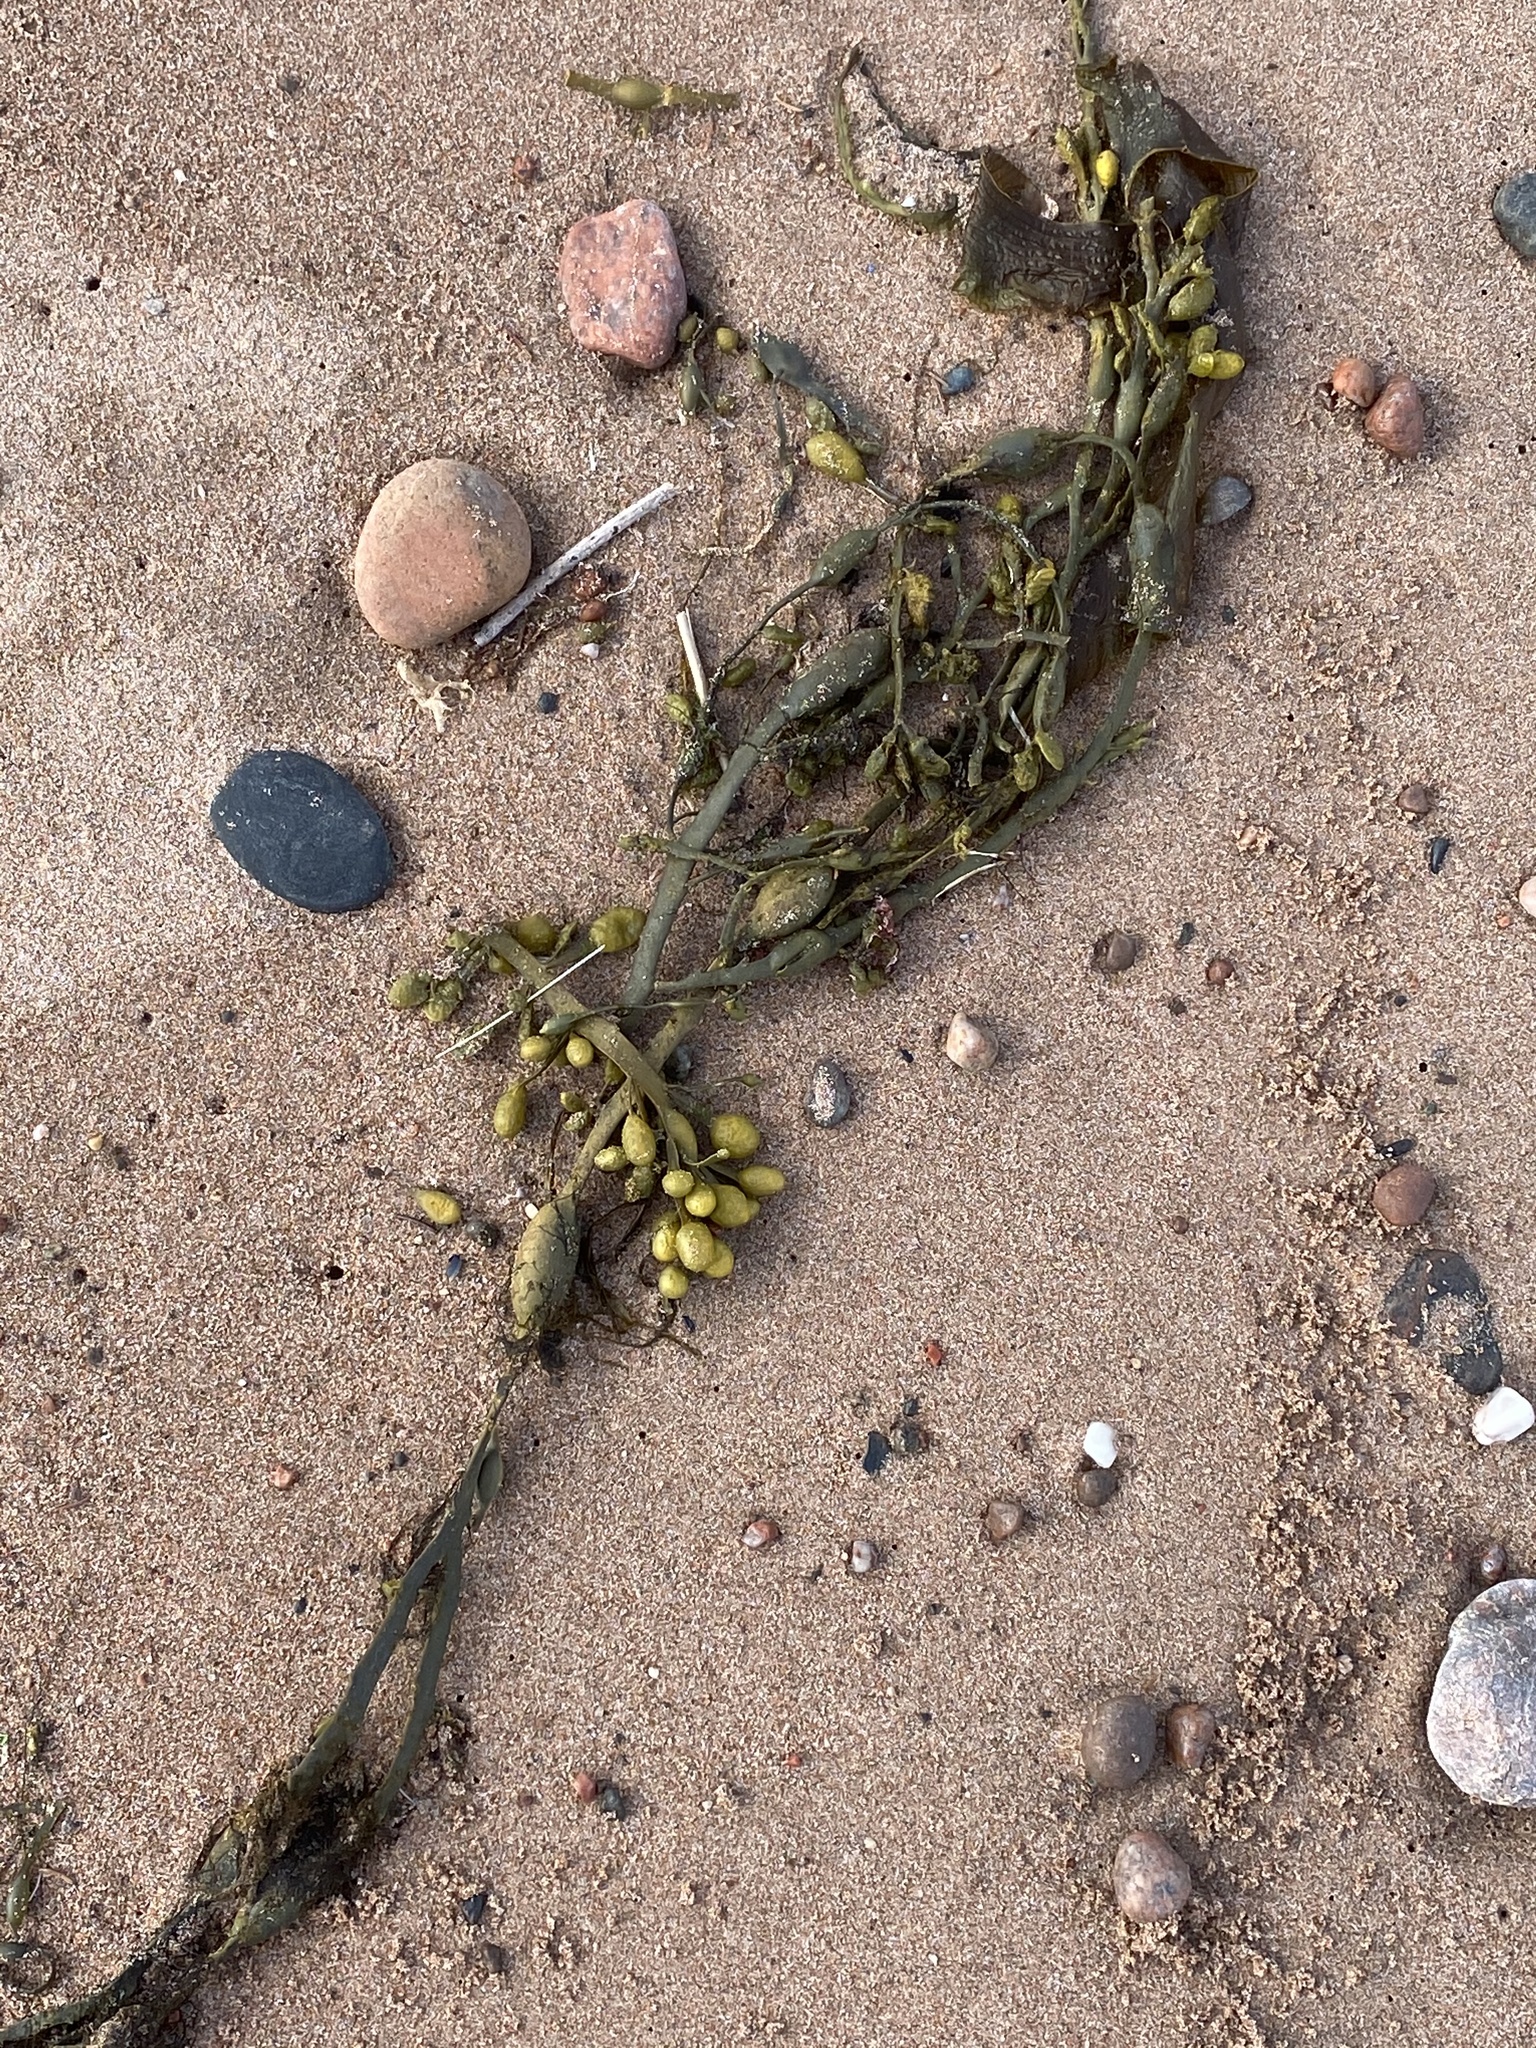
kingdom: Chromista
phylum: Ochrophyta
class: Phaeophyceae
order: Fucales
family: Fucaceae
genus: Ascophyllum
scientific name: Ascophyllum nodosum
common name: Knotted wrack
